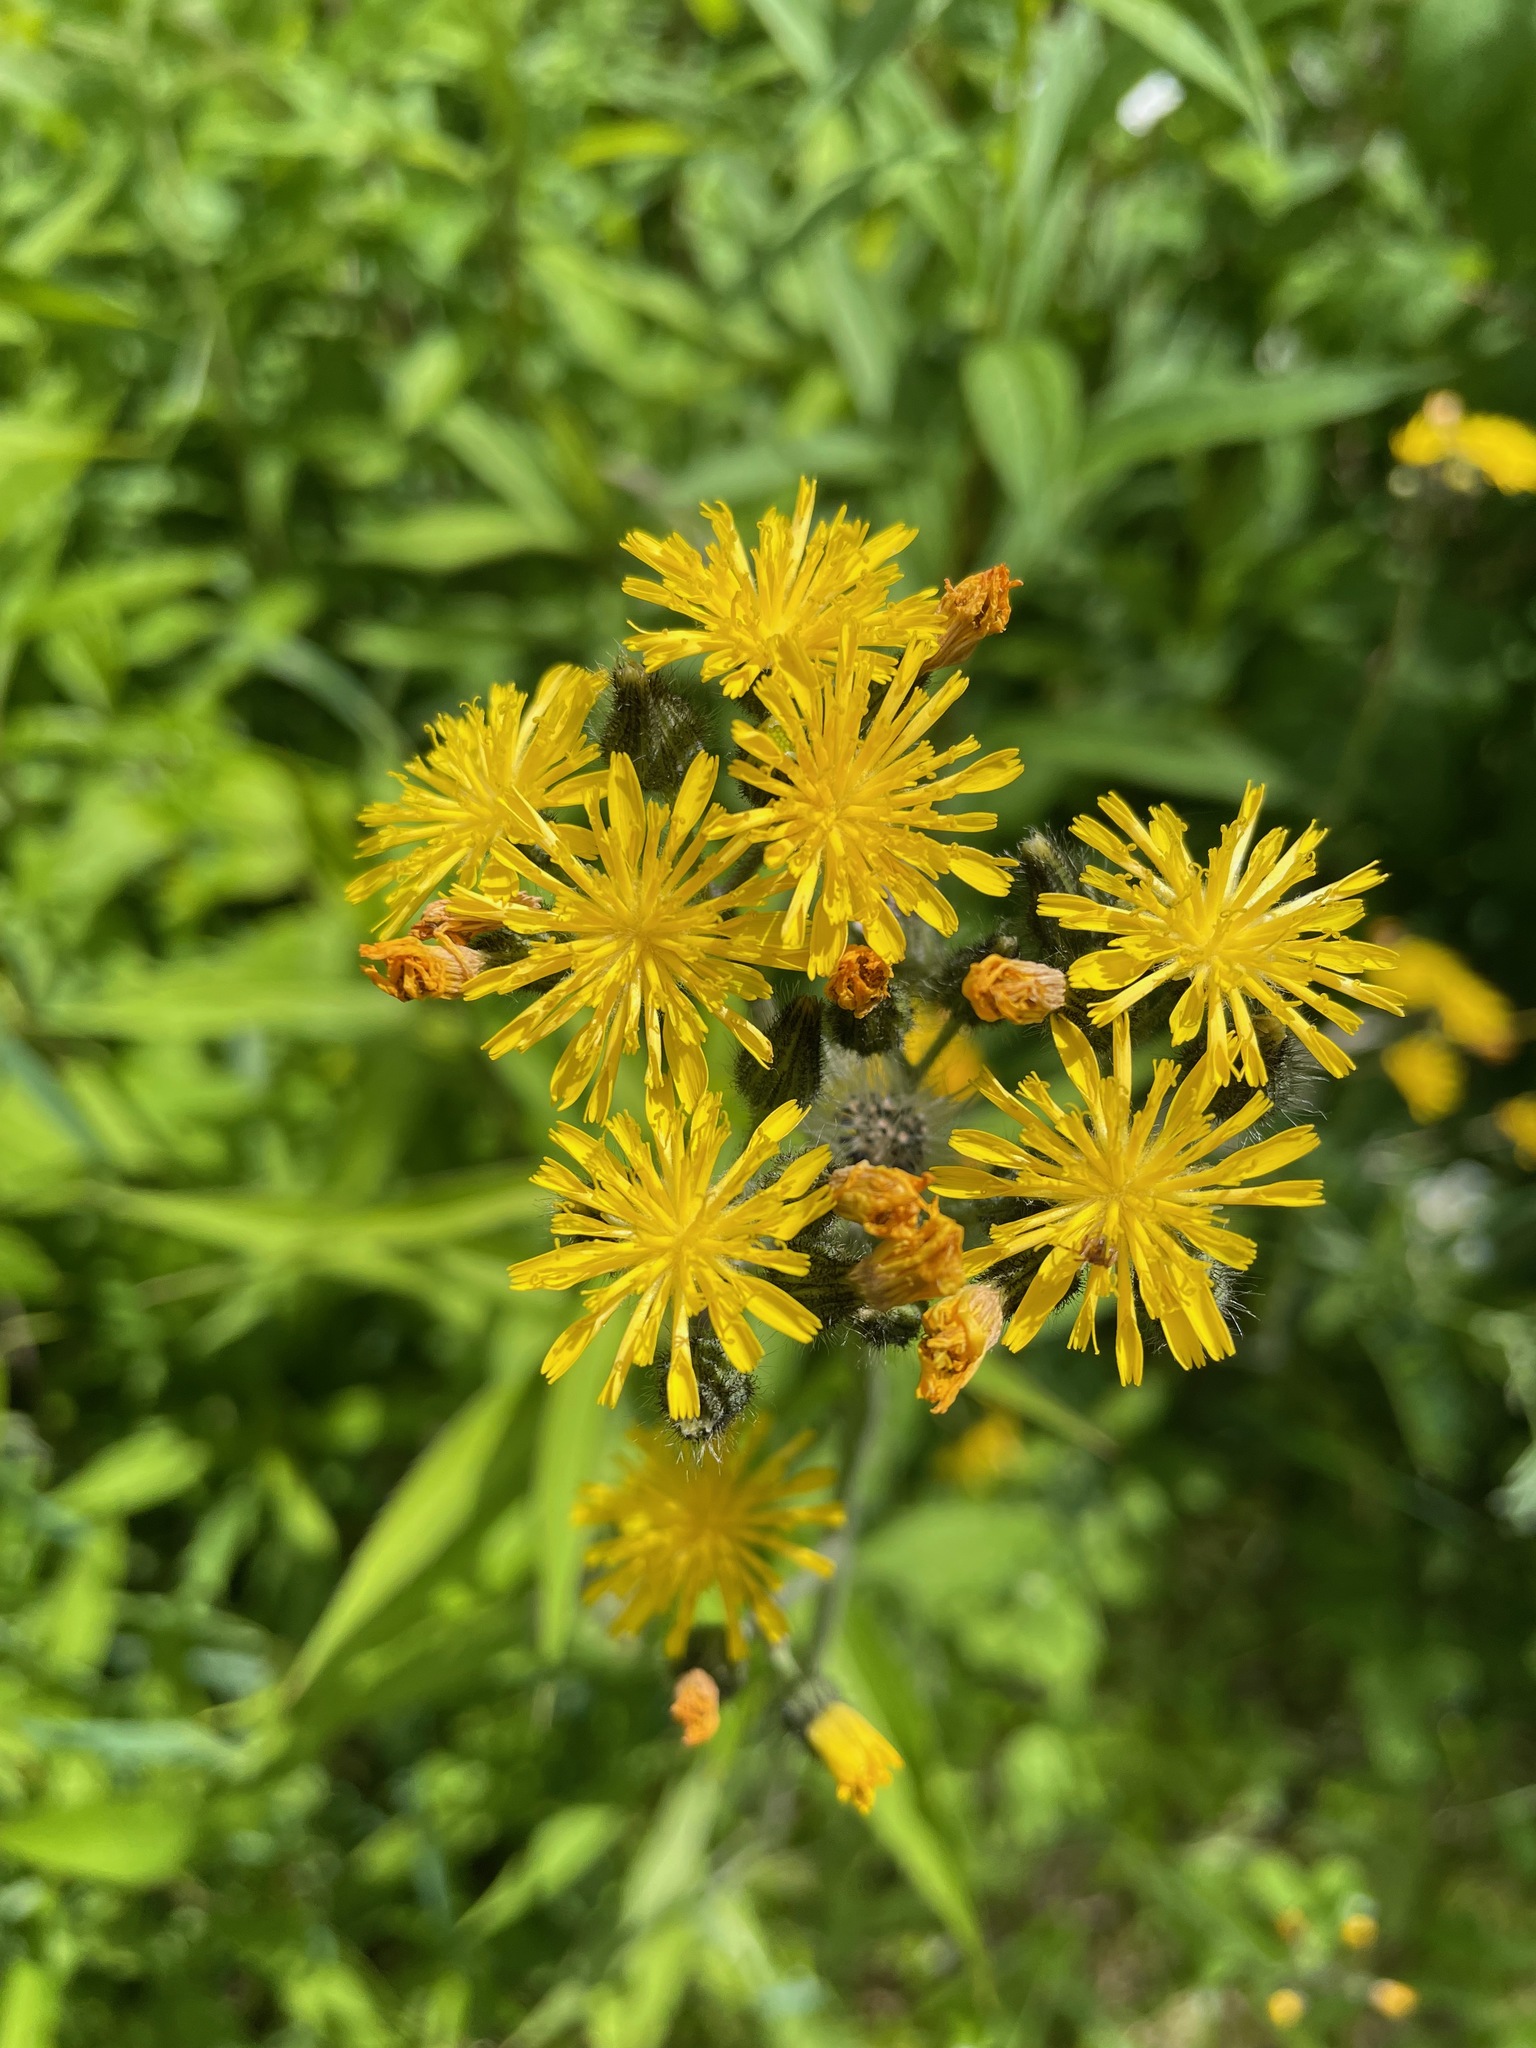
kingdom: Plantae
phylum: Tracheophyta
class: Magnoliopsida
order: Asterales
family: Asteraceae
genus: Pilosella
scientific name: Pilosella caespitosa
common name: Yellow fox-and-cubs
